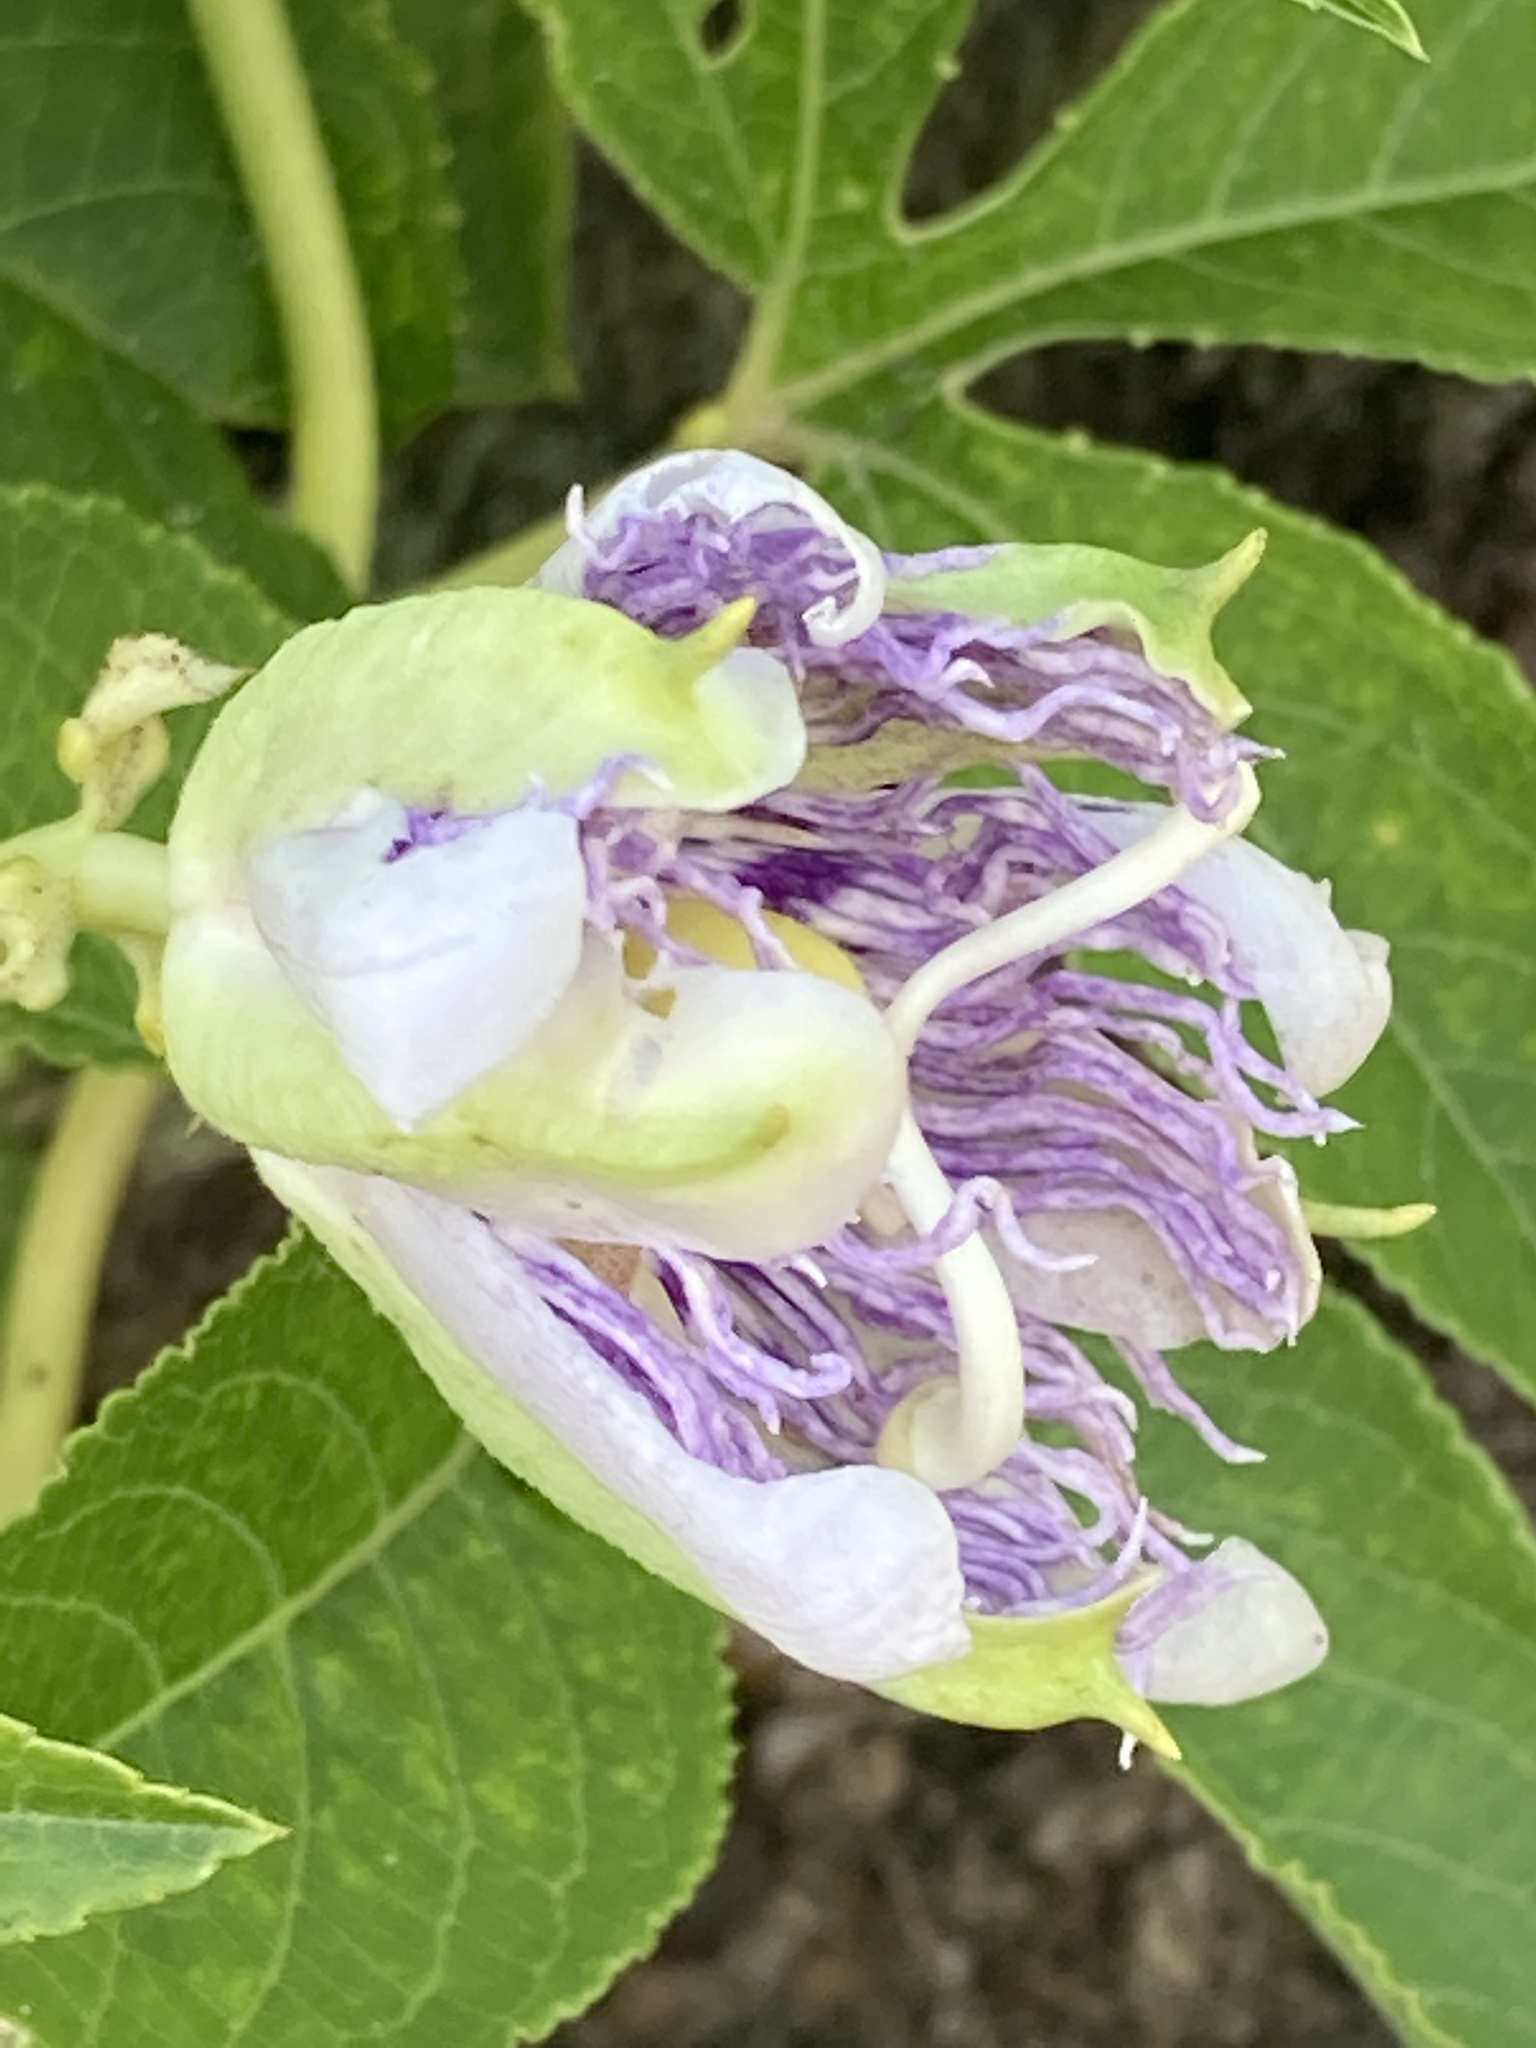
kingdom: Plantae
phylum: Tracheophyta
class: Magnoliopsida
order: Malpighiales
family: Passifloraceae
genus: Passiflora
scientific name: Passiflora incarnata
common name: Apricot-vine
